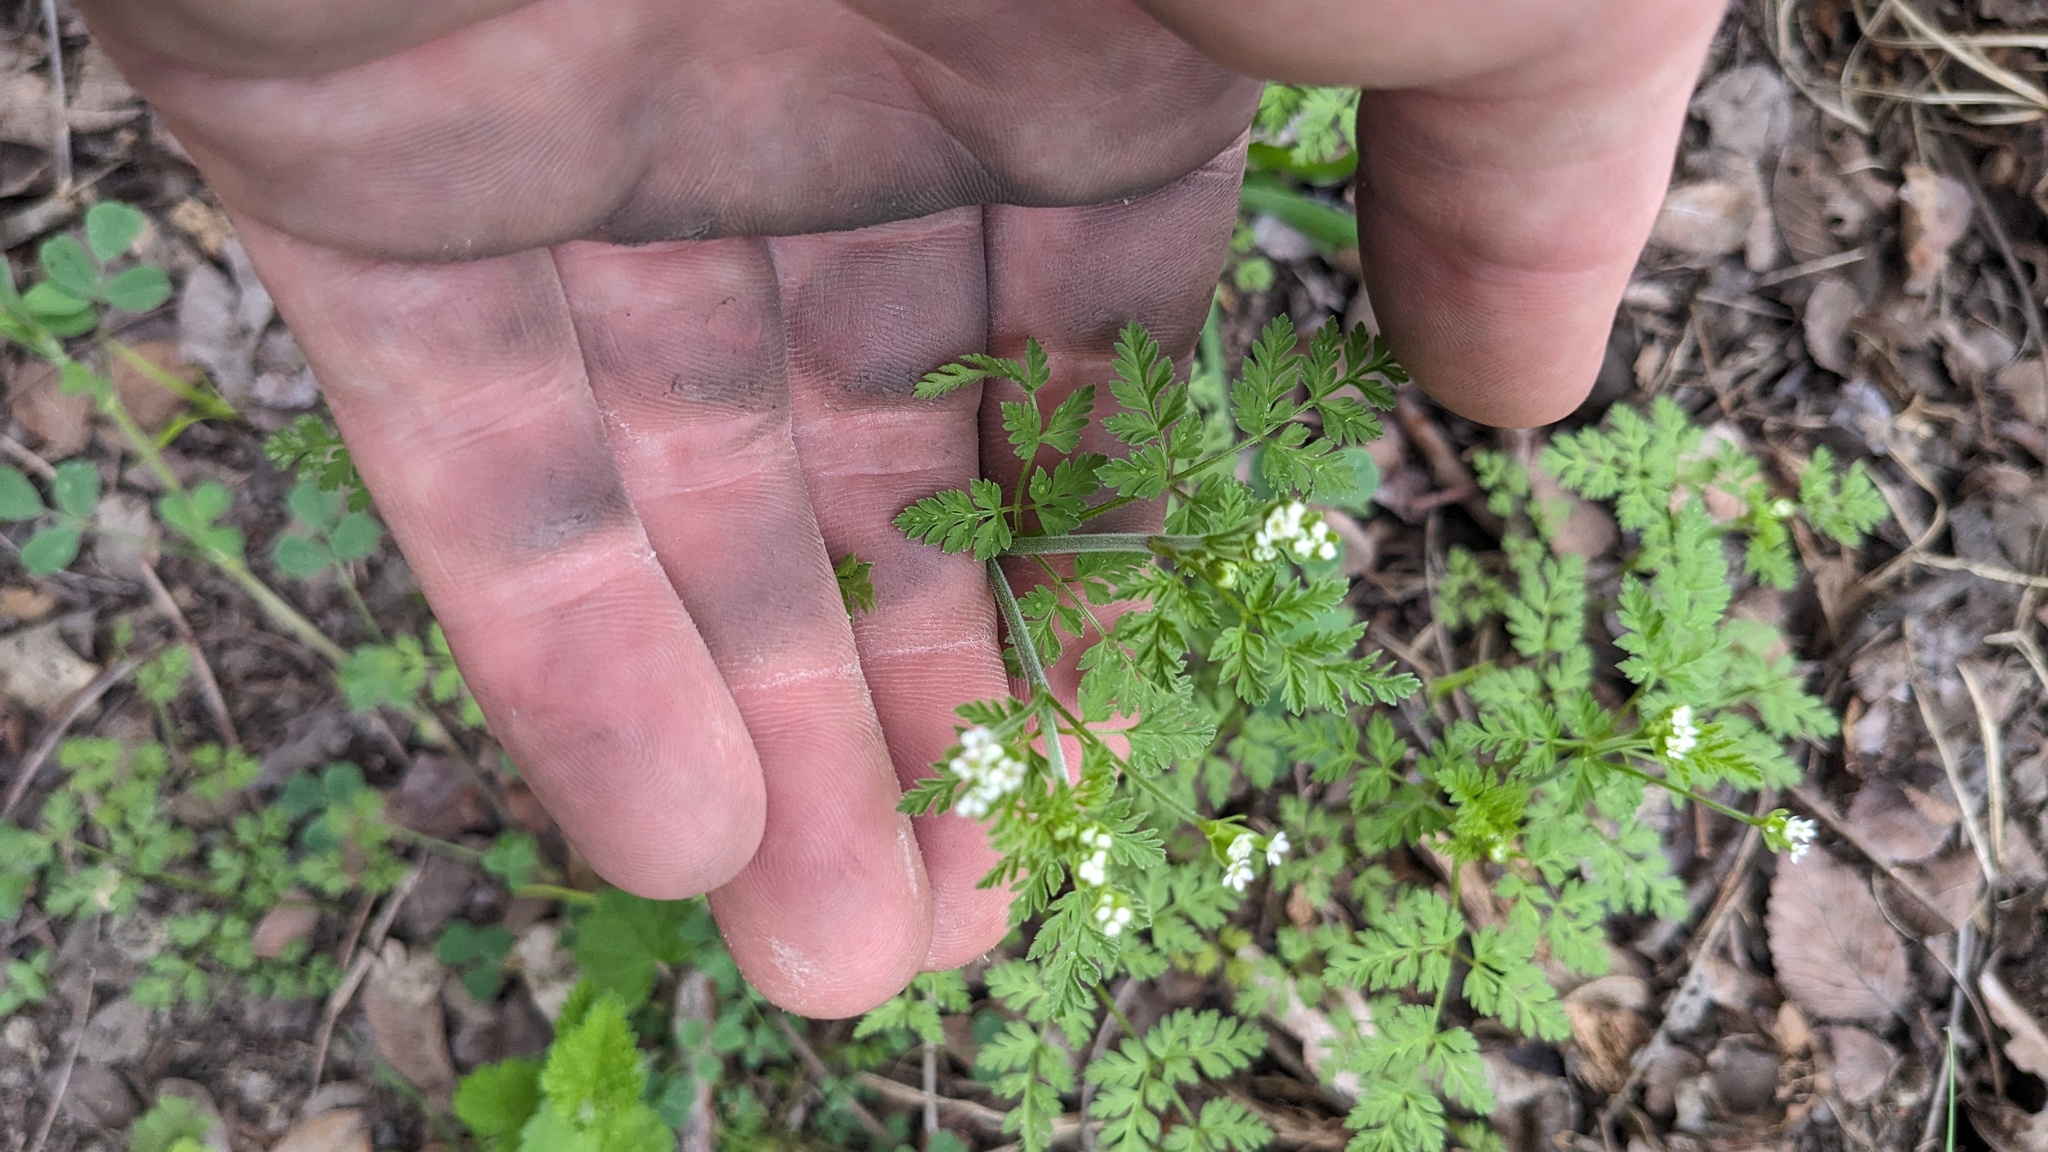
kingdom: Plantae
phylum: Tracheophyta
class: Magnoliopsida
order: Apiales
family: Apiaceae
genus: Chaerophyllum
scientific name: Chaerophyllum tainturieri
